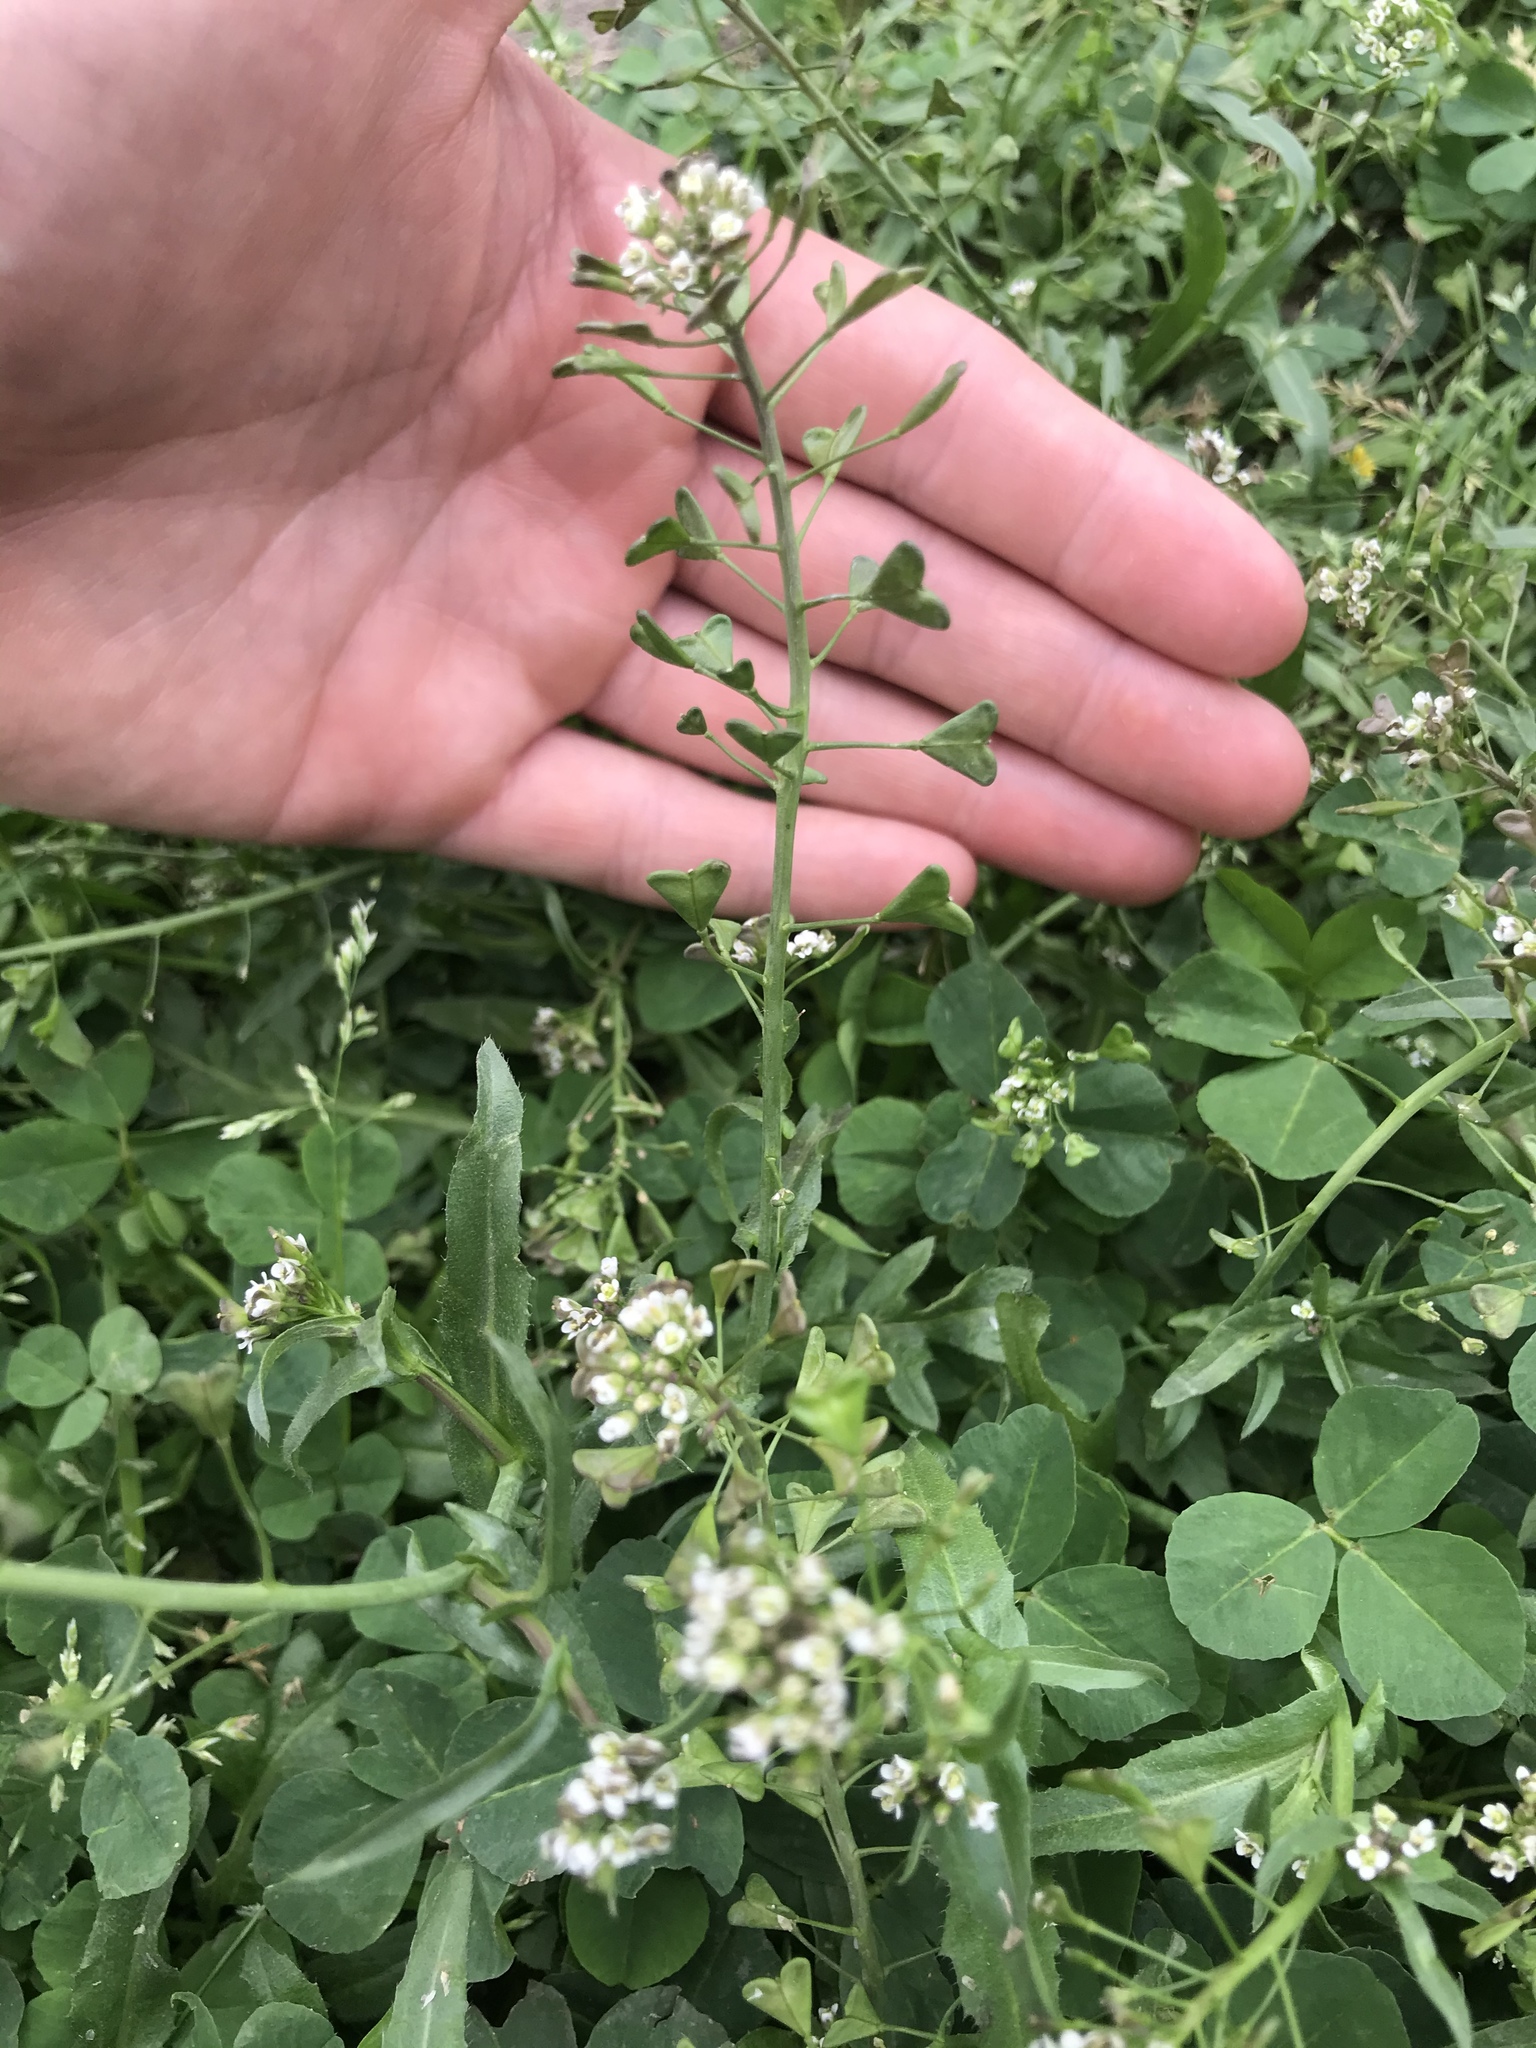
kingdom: Plantae
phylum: Tracheophyta
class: Magnoliopsida
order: Brassicales
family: Brassicaceae
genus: Capsella
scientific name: Capsella bursa-pastoris
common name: Shepherd's purse
